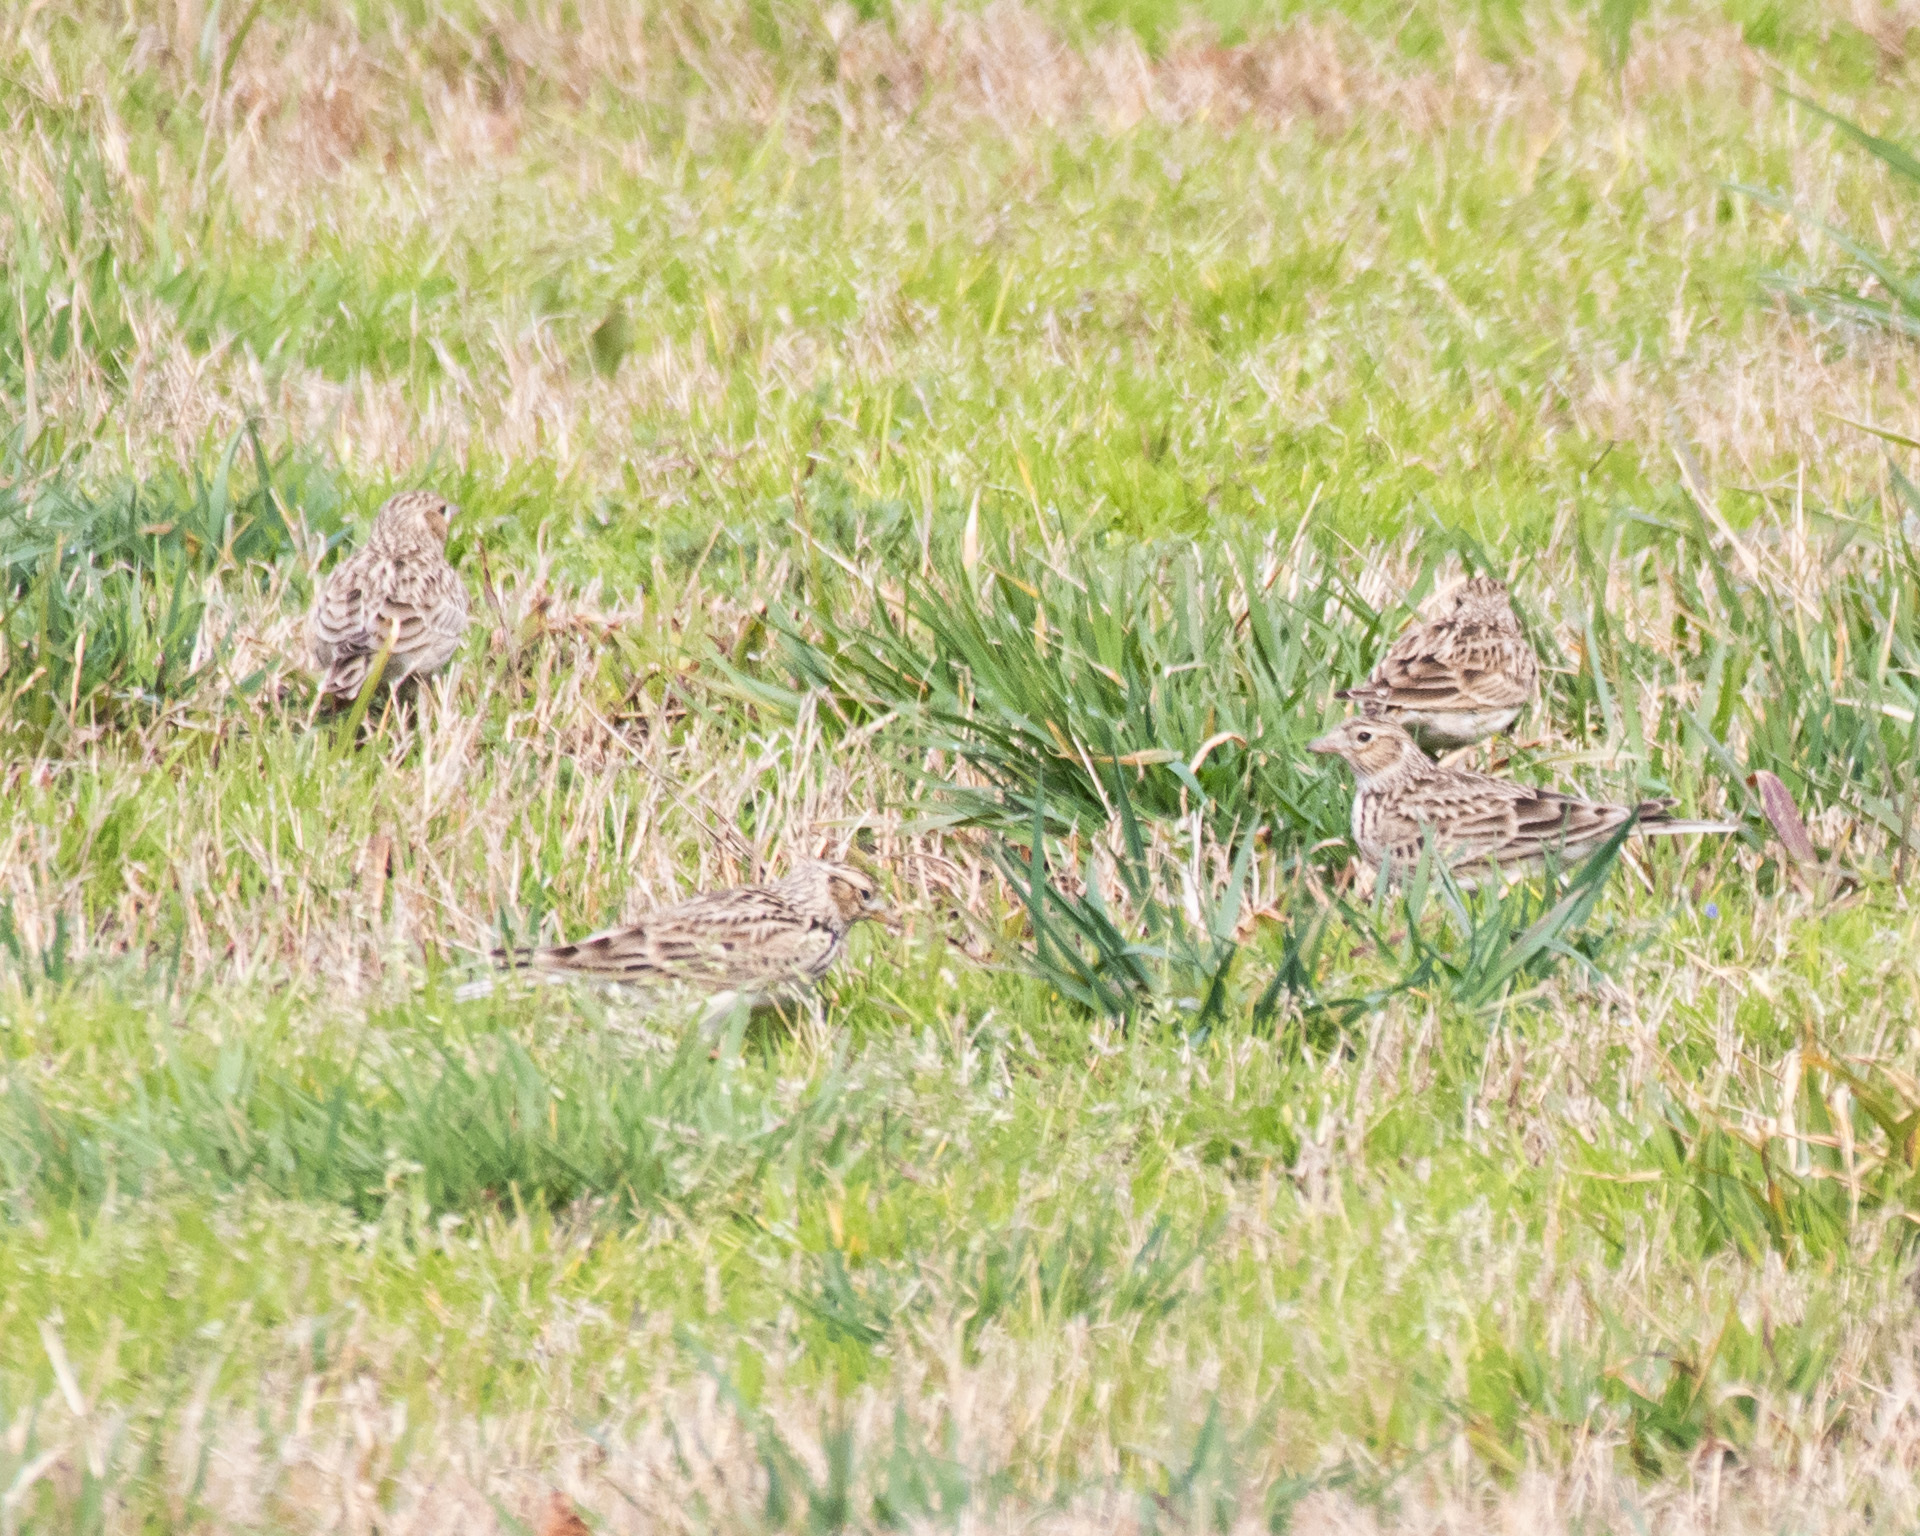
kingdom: Animalia
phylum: Chordata
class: Aves
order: Passeriformes
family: Alaudidae
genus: Alauda
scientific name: Alauda arvensis
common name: Eurasian skylark
